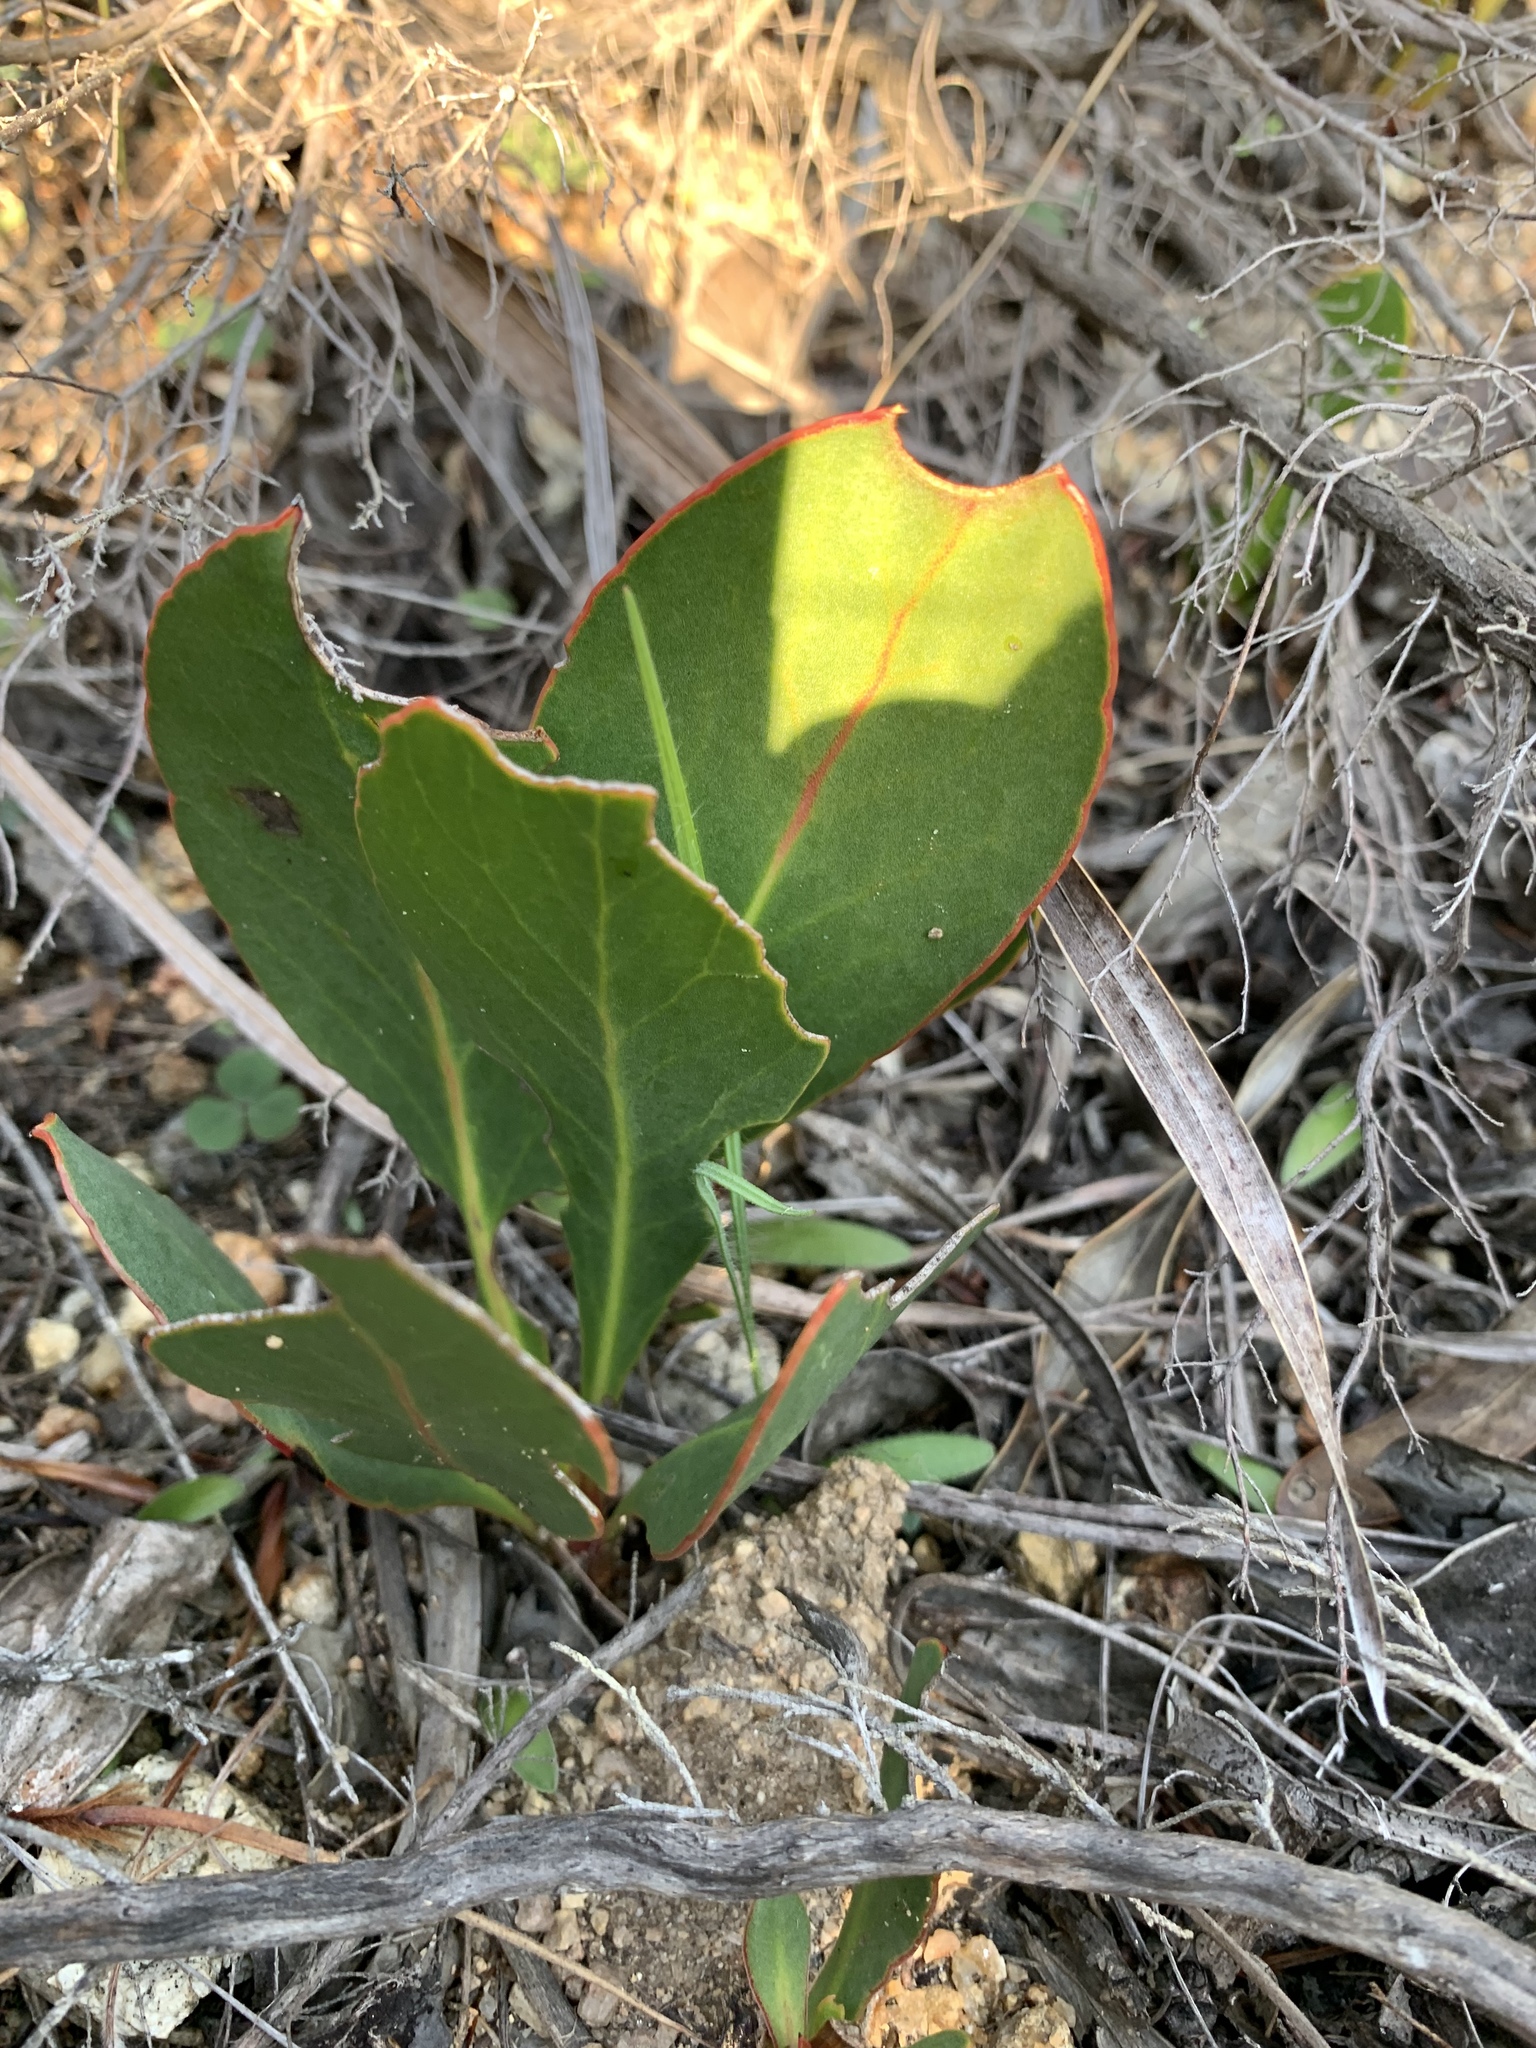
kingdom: Plantae
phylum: Tracheophyta
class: Magnoliopsida
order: Proteales
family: Proteaceae
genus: Protea
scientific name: Protea acaulos
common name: Common ground sugarbush
